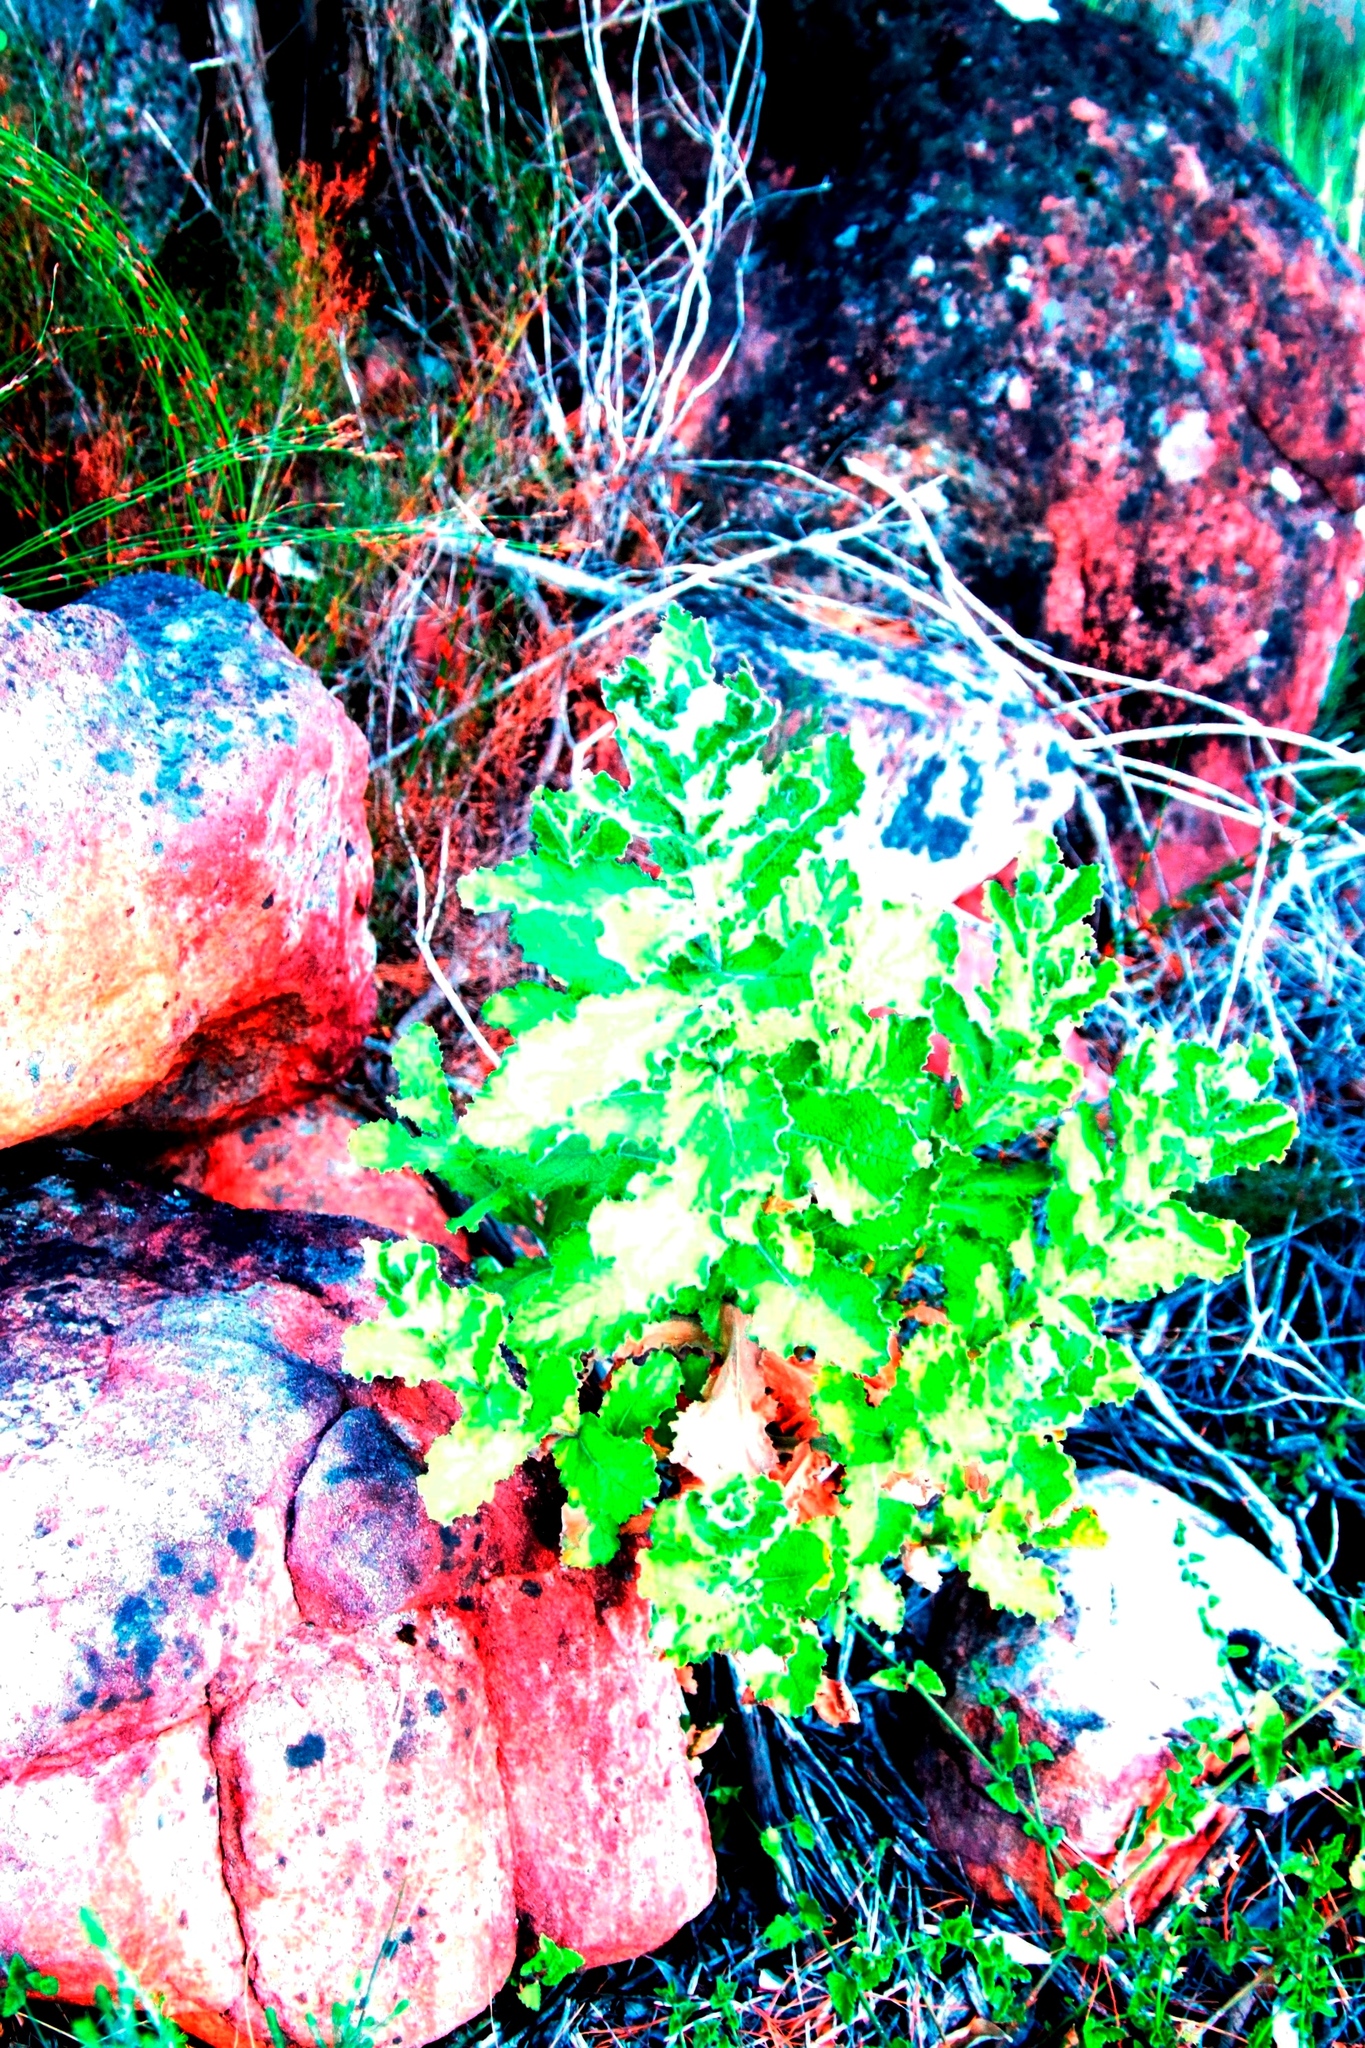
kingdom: Plantae
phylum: Tracheophyta
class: Magnoliopsida
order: Asterales
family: Asteraceae
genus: Senecio
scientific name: Senecio rigidus
